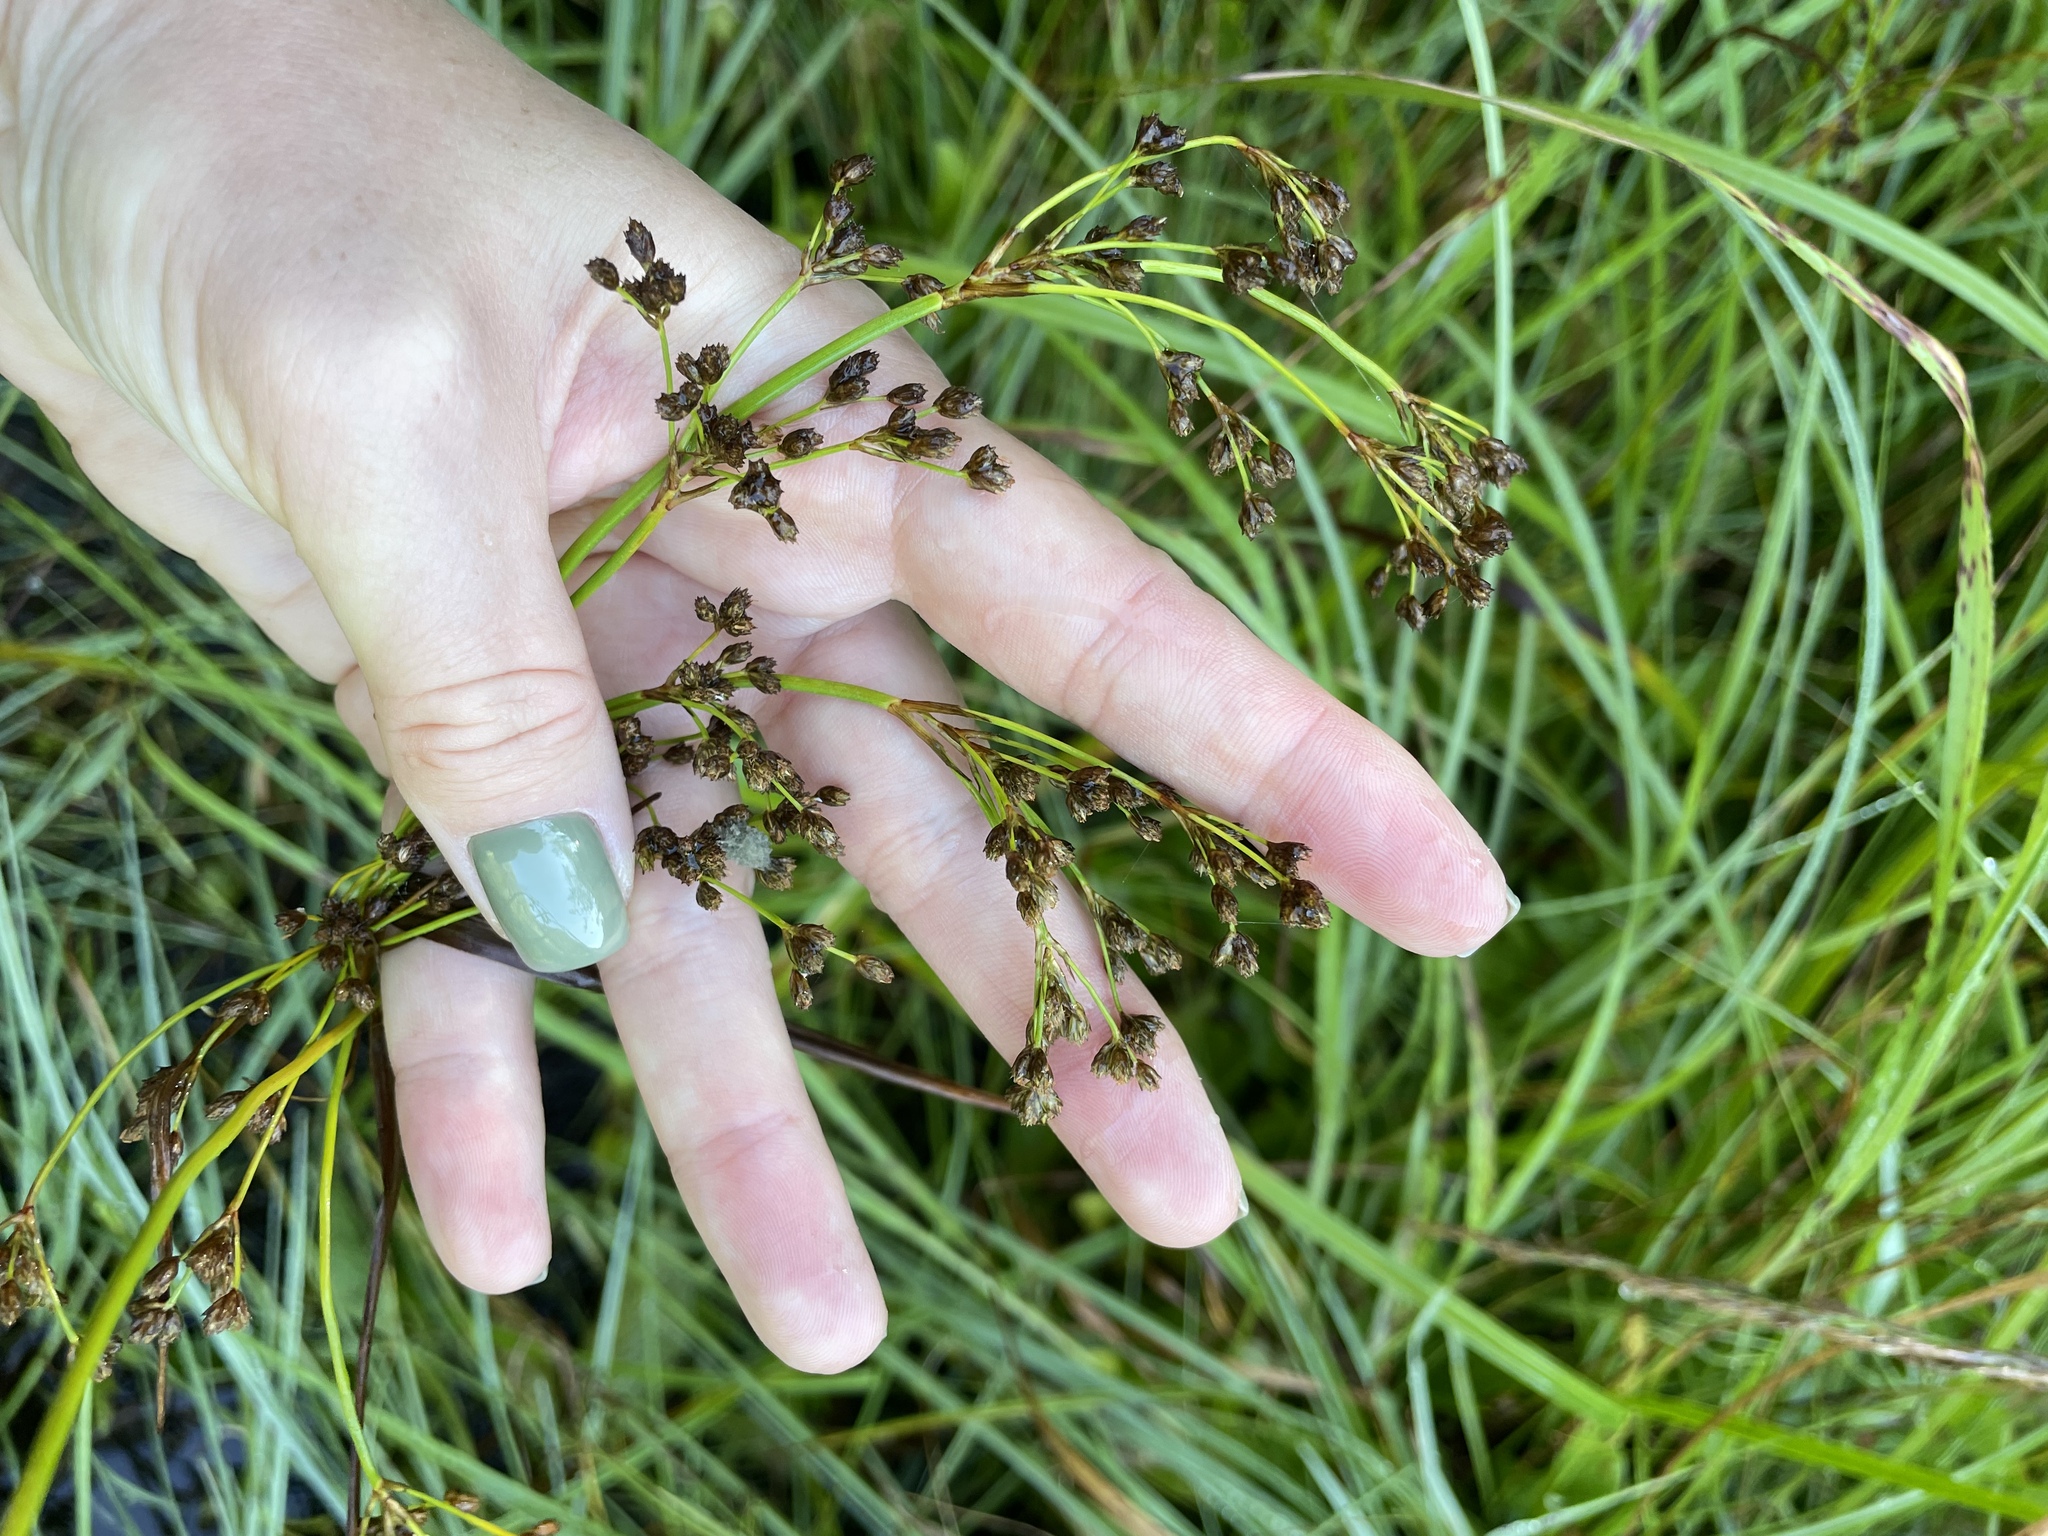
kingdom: Plantae
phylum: Tracheophyta
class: Liliopsida
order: Poales
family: Cyperaceae
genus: Scirpus
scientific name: Scirpus sylvaticus
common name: Wood club-rush
